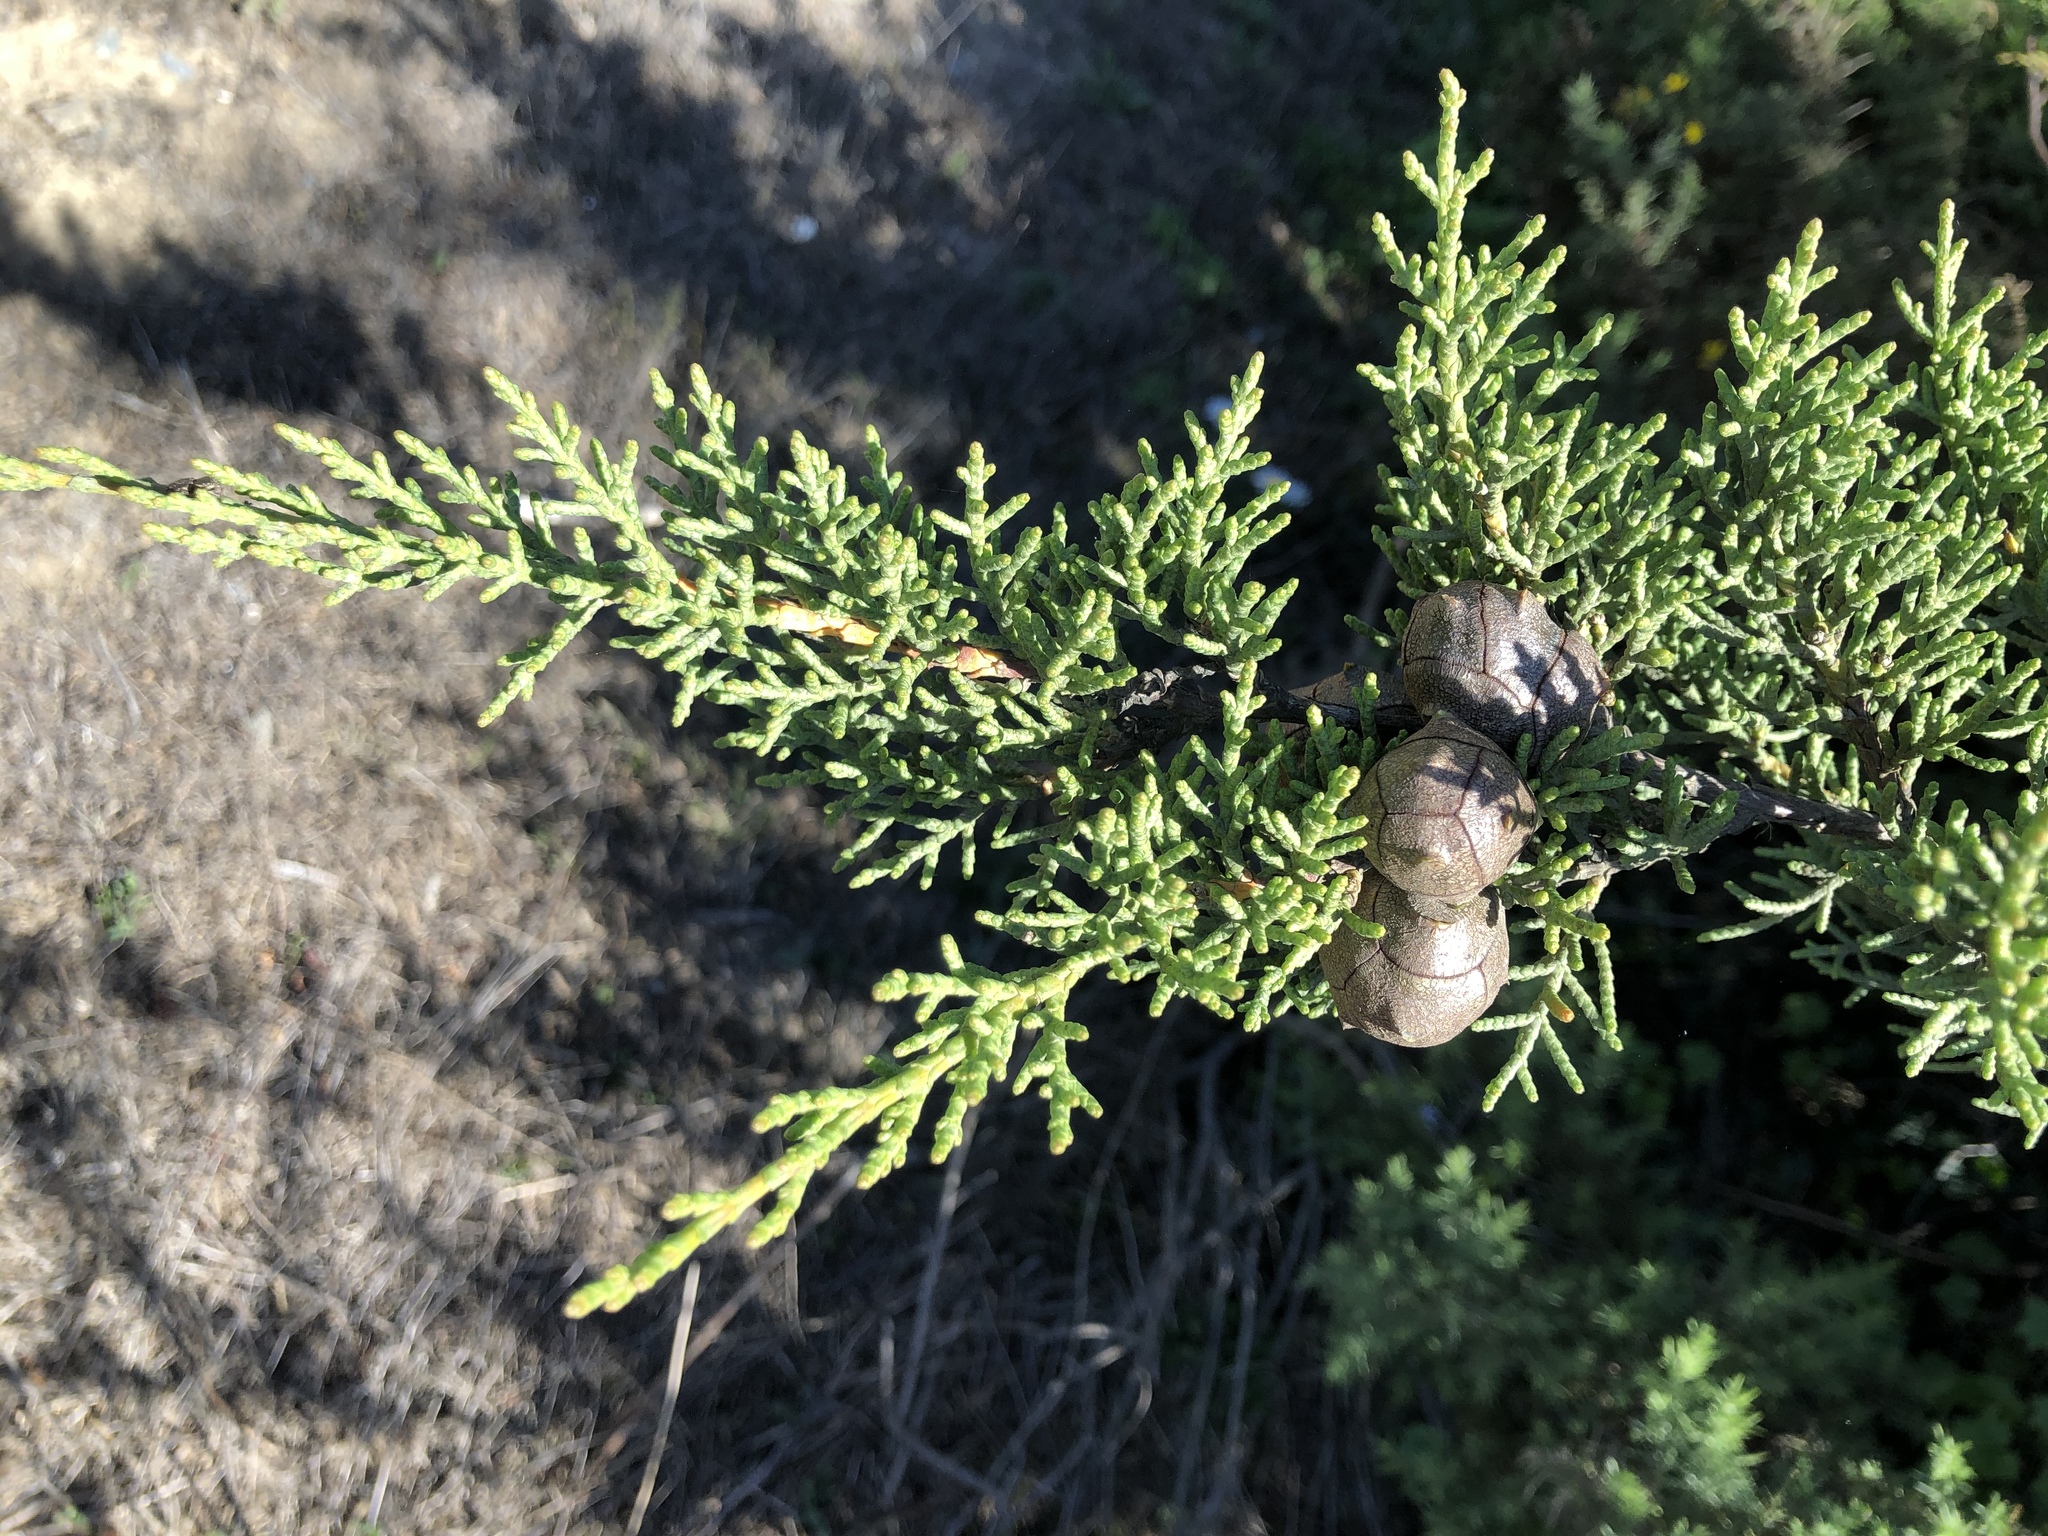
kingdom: Plantae
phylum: Tracheophyta
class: Pinopsida
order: Pinales
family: Cupressaceae
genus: Cupressus
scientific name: Cupressus macrocarpa
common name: Monterey cypress
